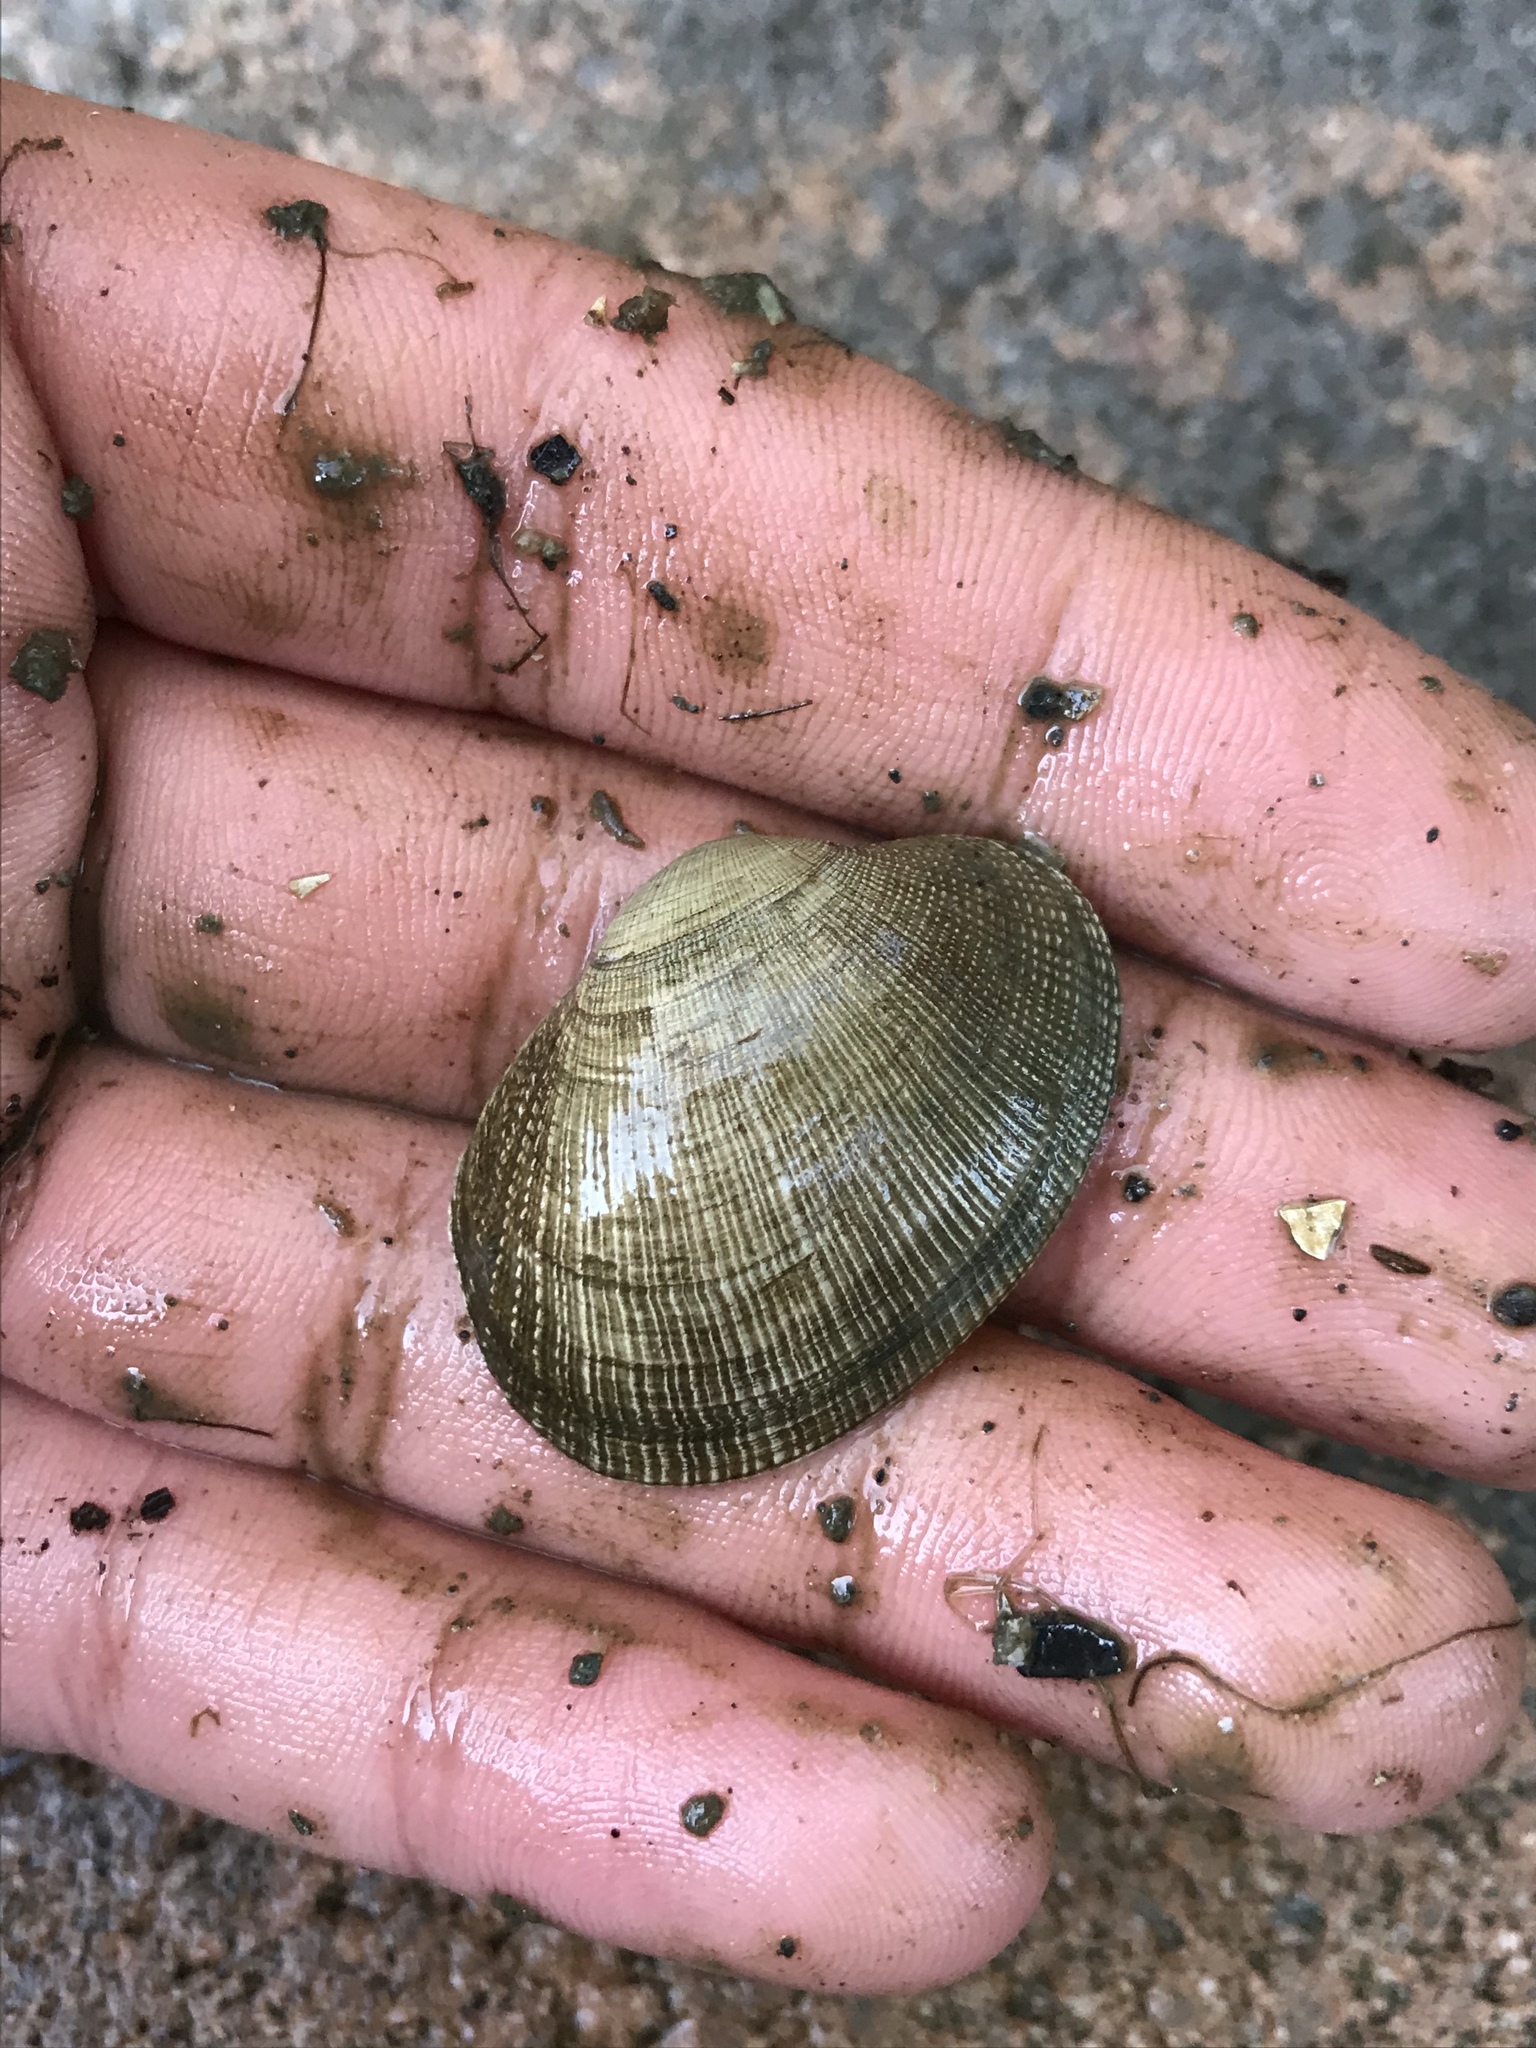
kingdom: Animalia
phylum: Mollusca
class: Bivalvia
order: Venerida
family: Veneridae
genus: Ruditapes
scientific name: Ruditapes philippinarum
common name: Manila clam
